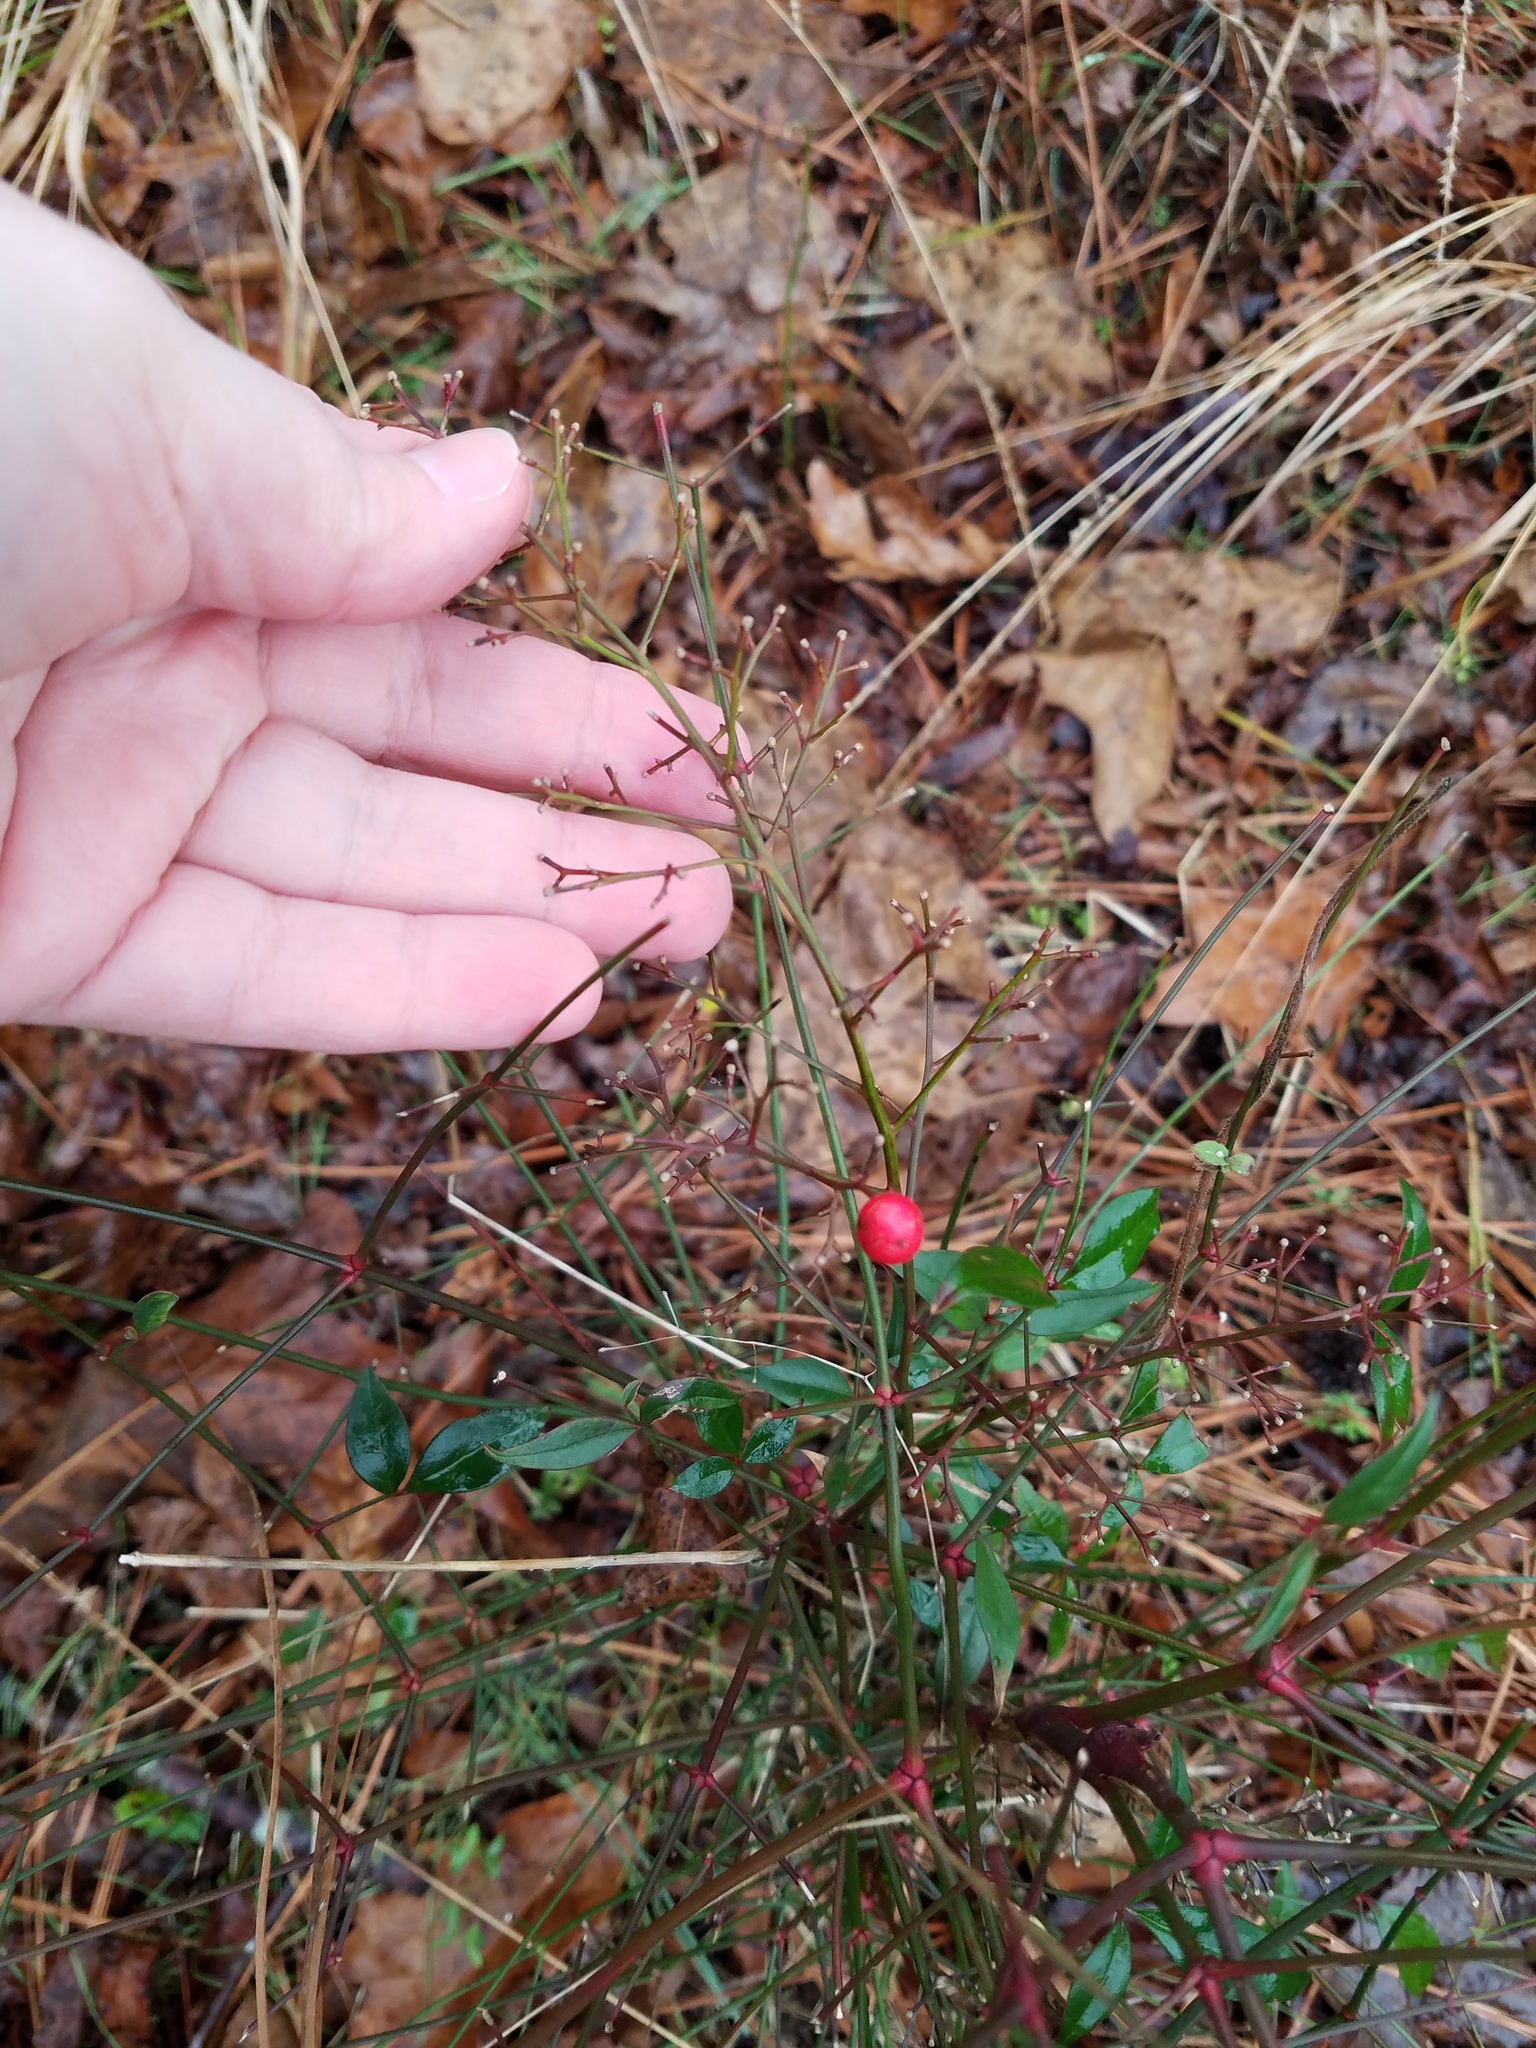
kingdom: Plantae
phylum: Tracheophyta
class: Magnoliopsida
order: Ranunculales
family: Berberidaceae
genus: Nandina
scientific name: Nandina domestica
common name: Sacred bamboo
